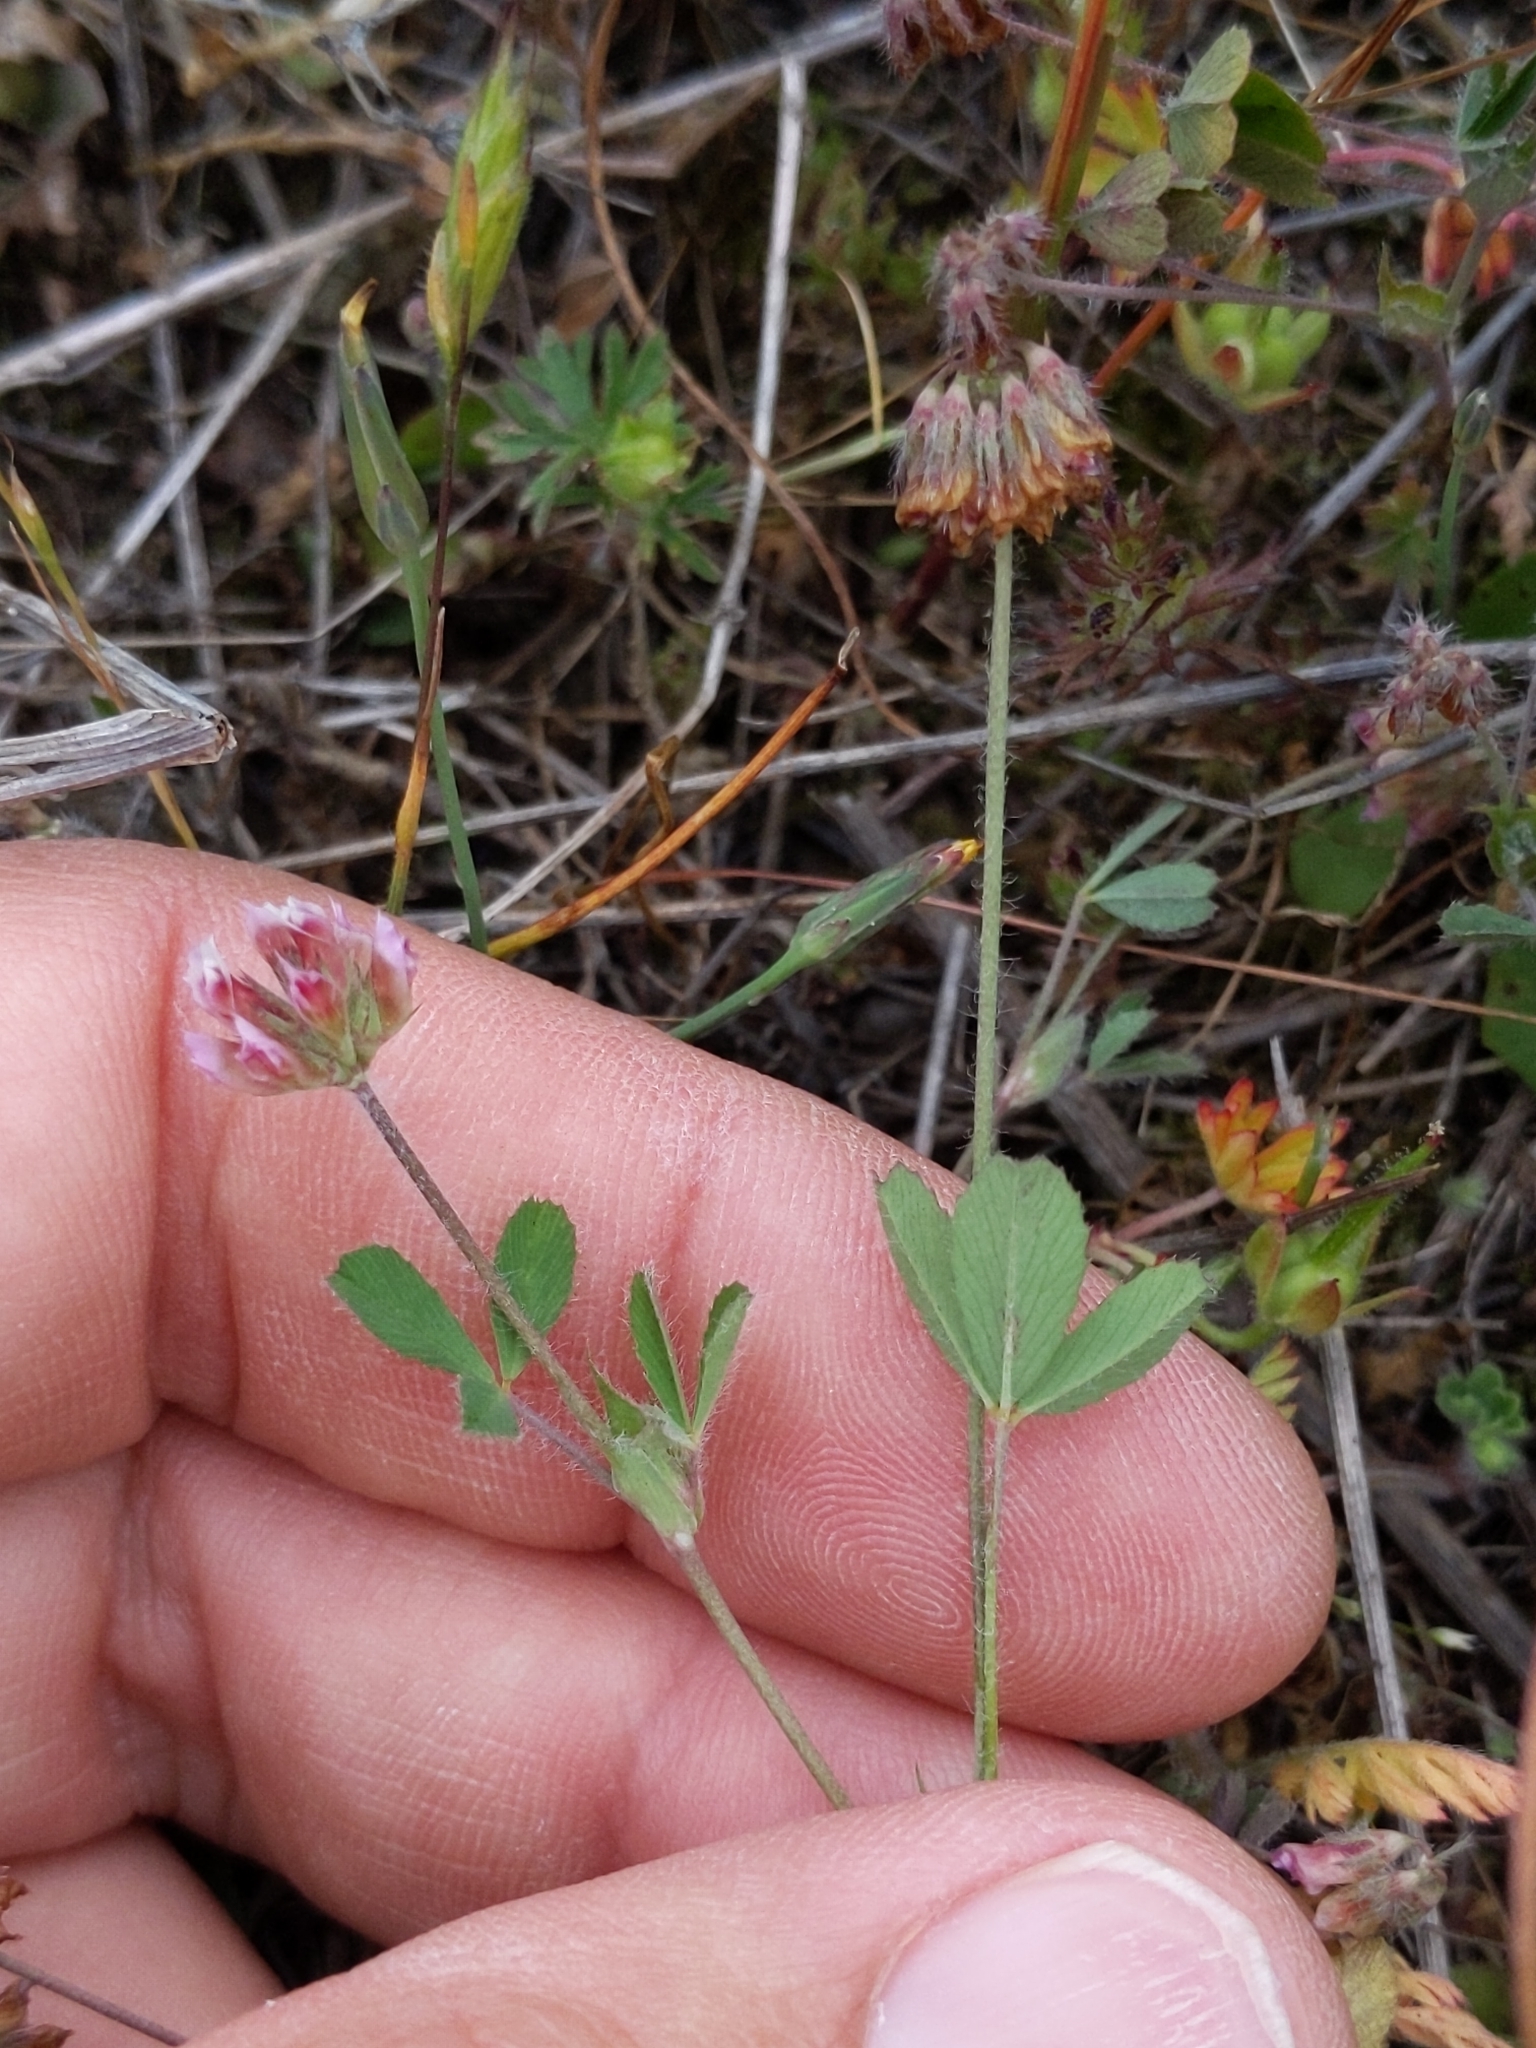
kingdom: Plantae
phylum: Tracheophyta
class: Magnoliopsida
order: Fabales
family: Fabaceae
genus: Trifolium
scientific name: Trifolium bifidum
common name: Notch-leaf clover
